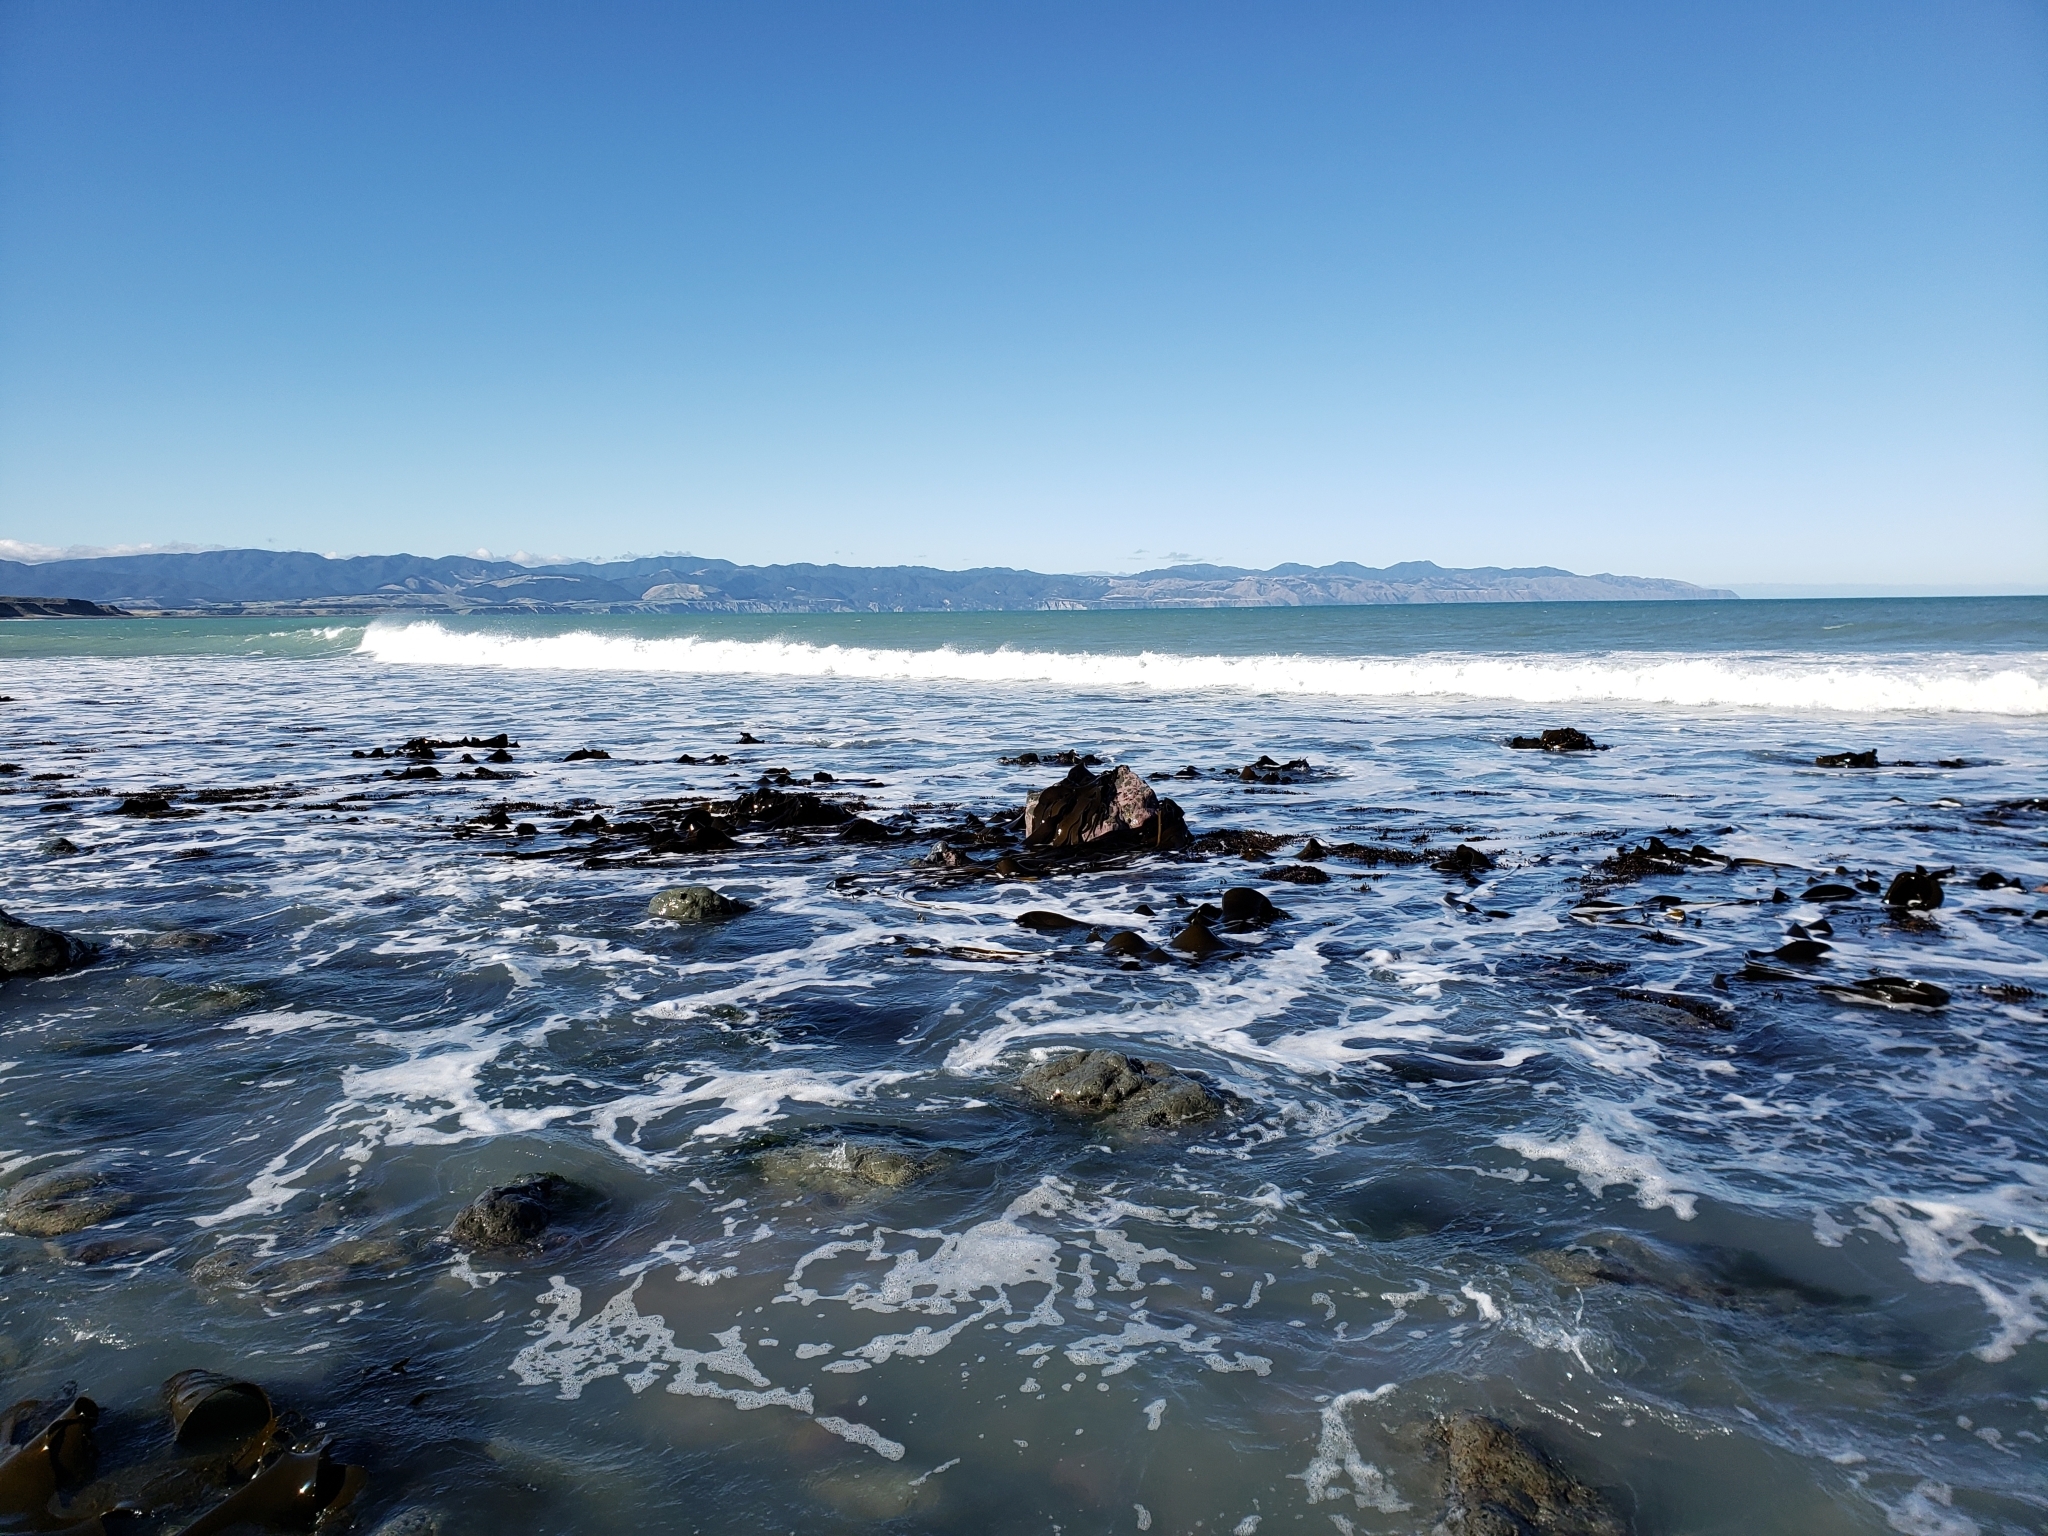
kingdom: Chromista
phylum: Ochrophyta
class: Phaeophyceae
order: Fucales
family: Durvillaeaceae
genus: Durvillaea
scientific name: Durvillaea antarctica
